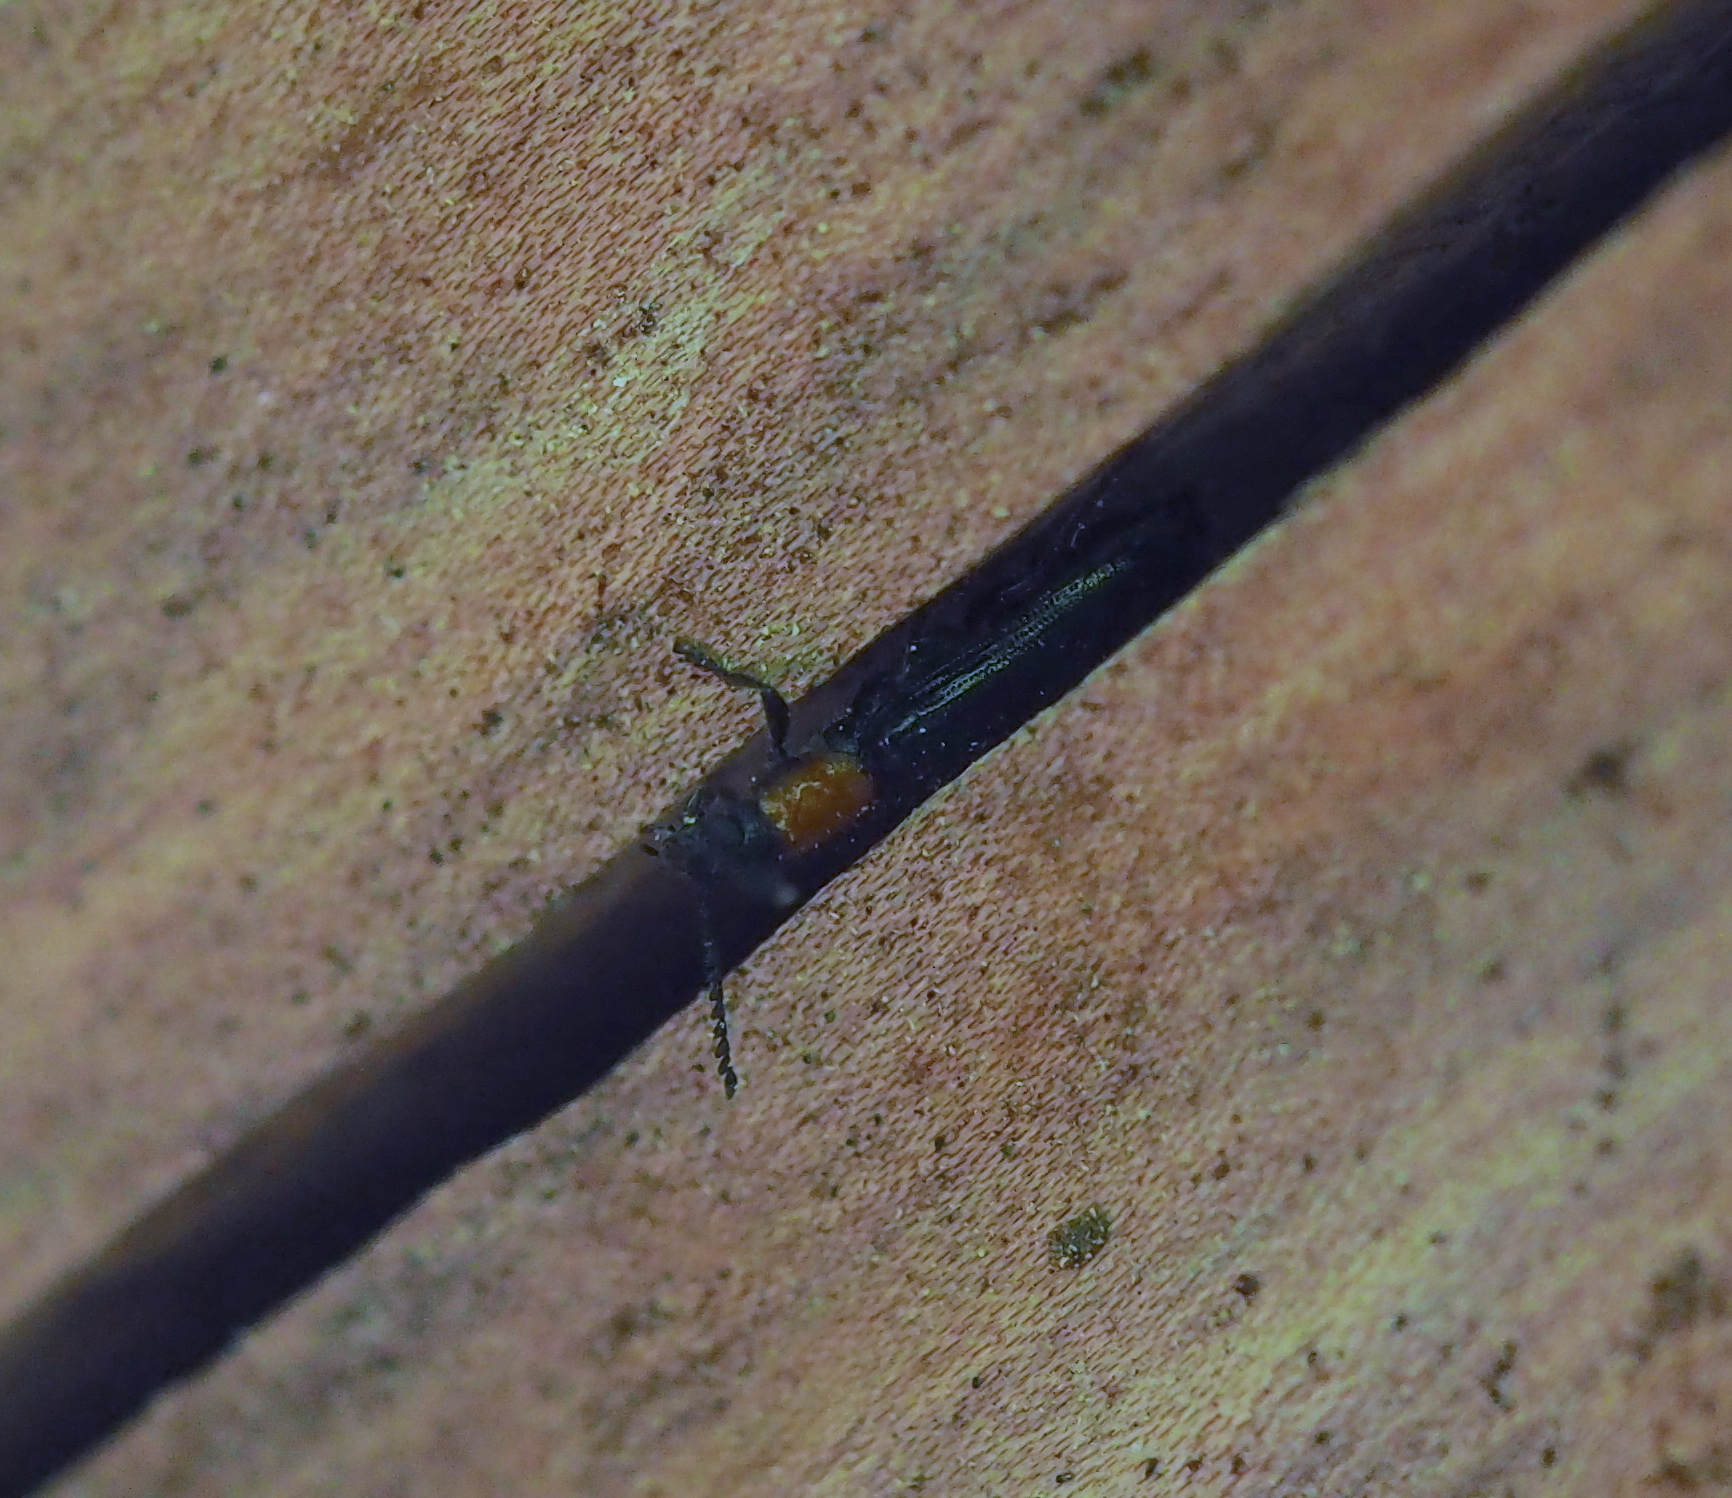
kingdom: Animalia
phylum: Arthropoda
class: Insecta
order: Coleoptera
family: Cleridae
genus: Tillus
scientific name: Tillus elongatus
